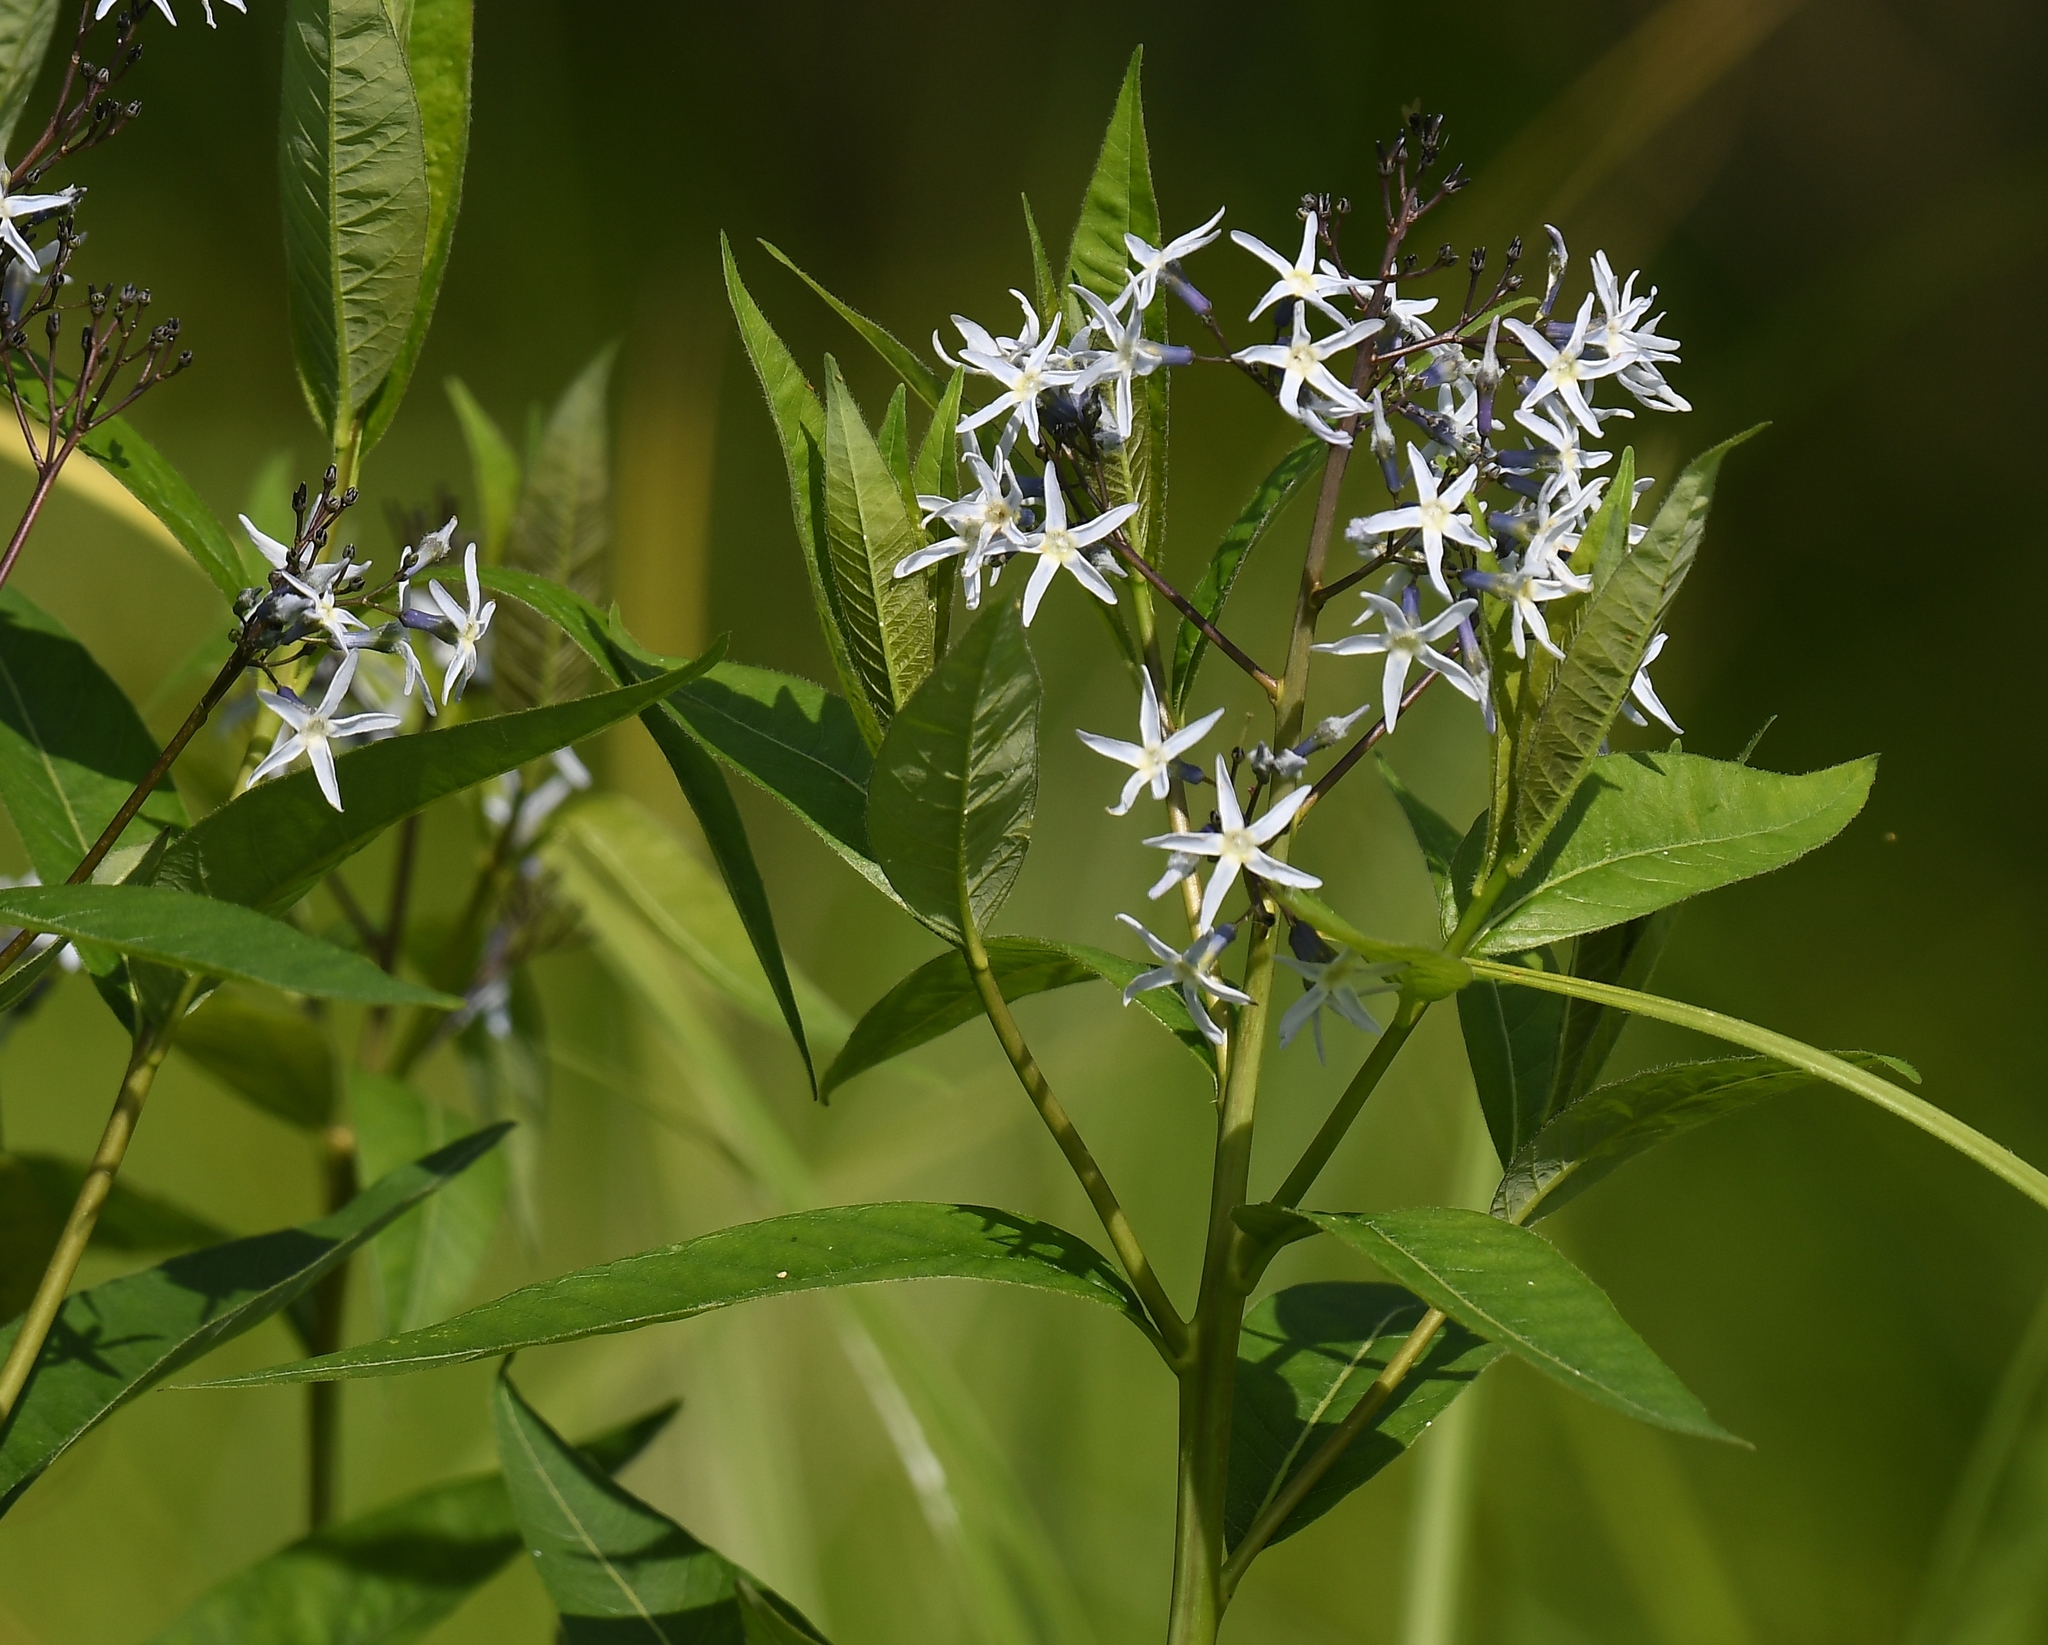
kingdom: Plantae
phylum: Tracheophyta
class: Magnoliopsida
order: Gentianales
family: Apocynaceae
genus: Amsonia
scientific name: Amsonia tabernaemontana
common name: Texas-star
